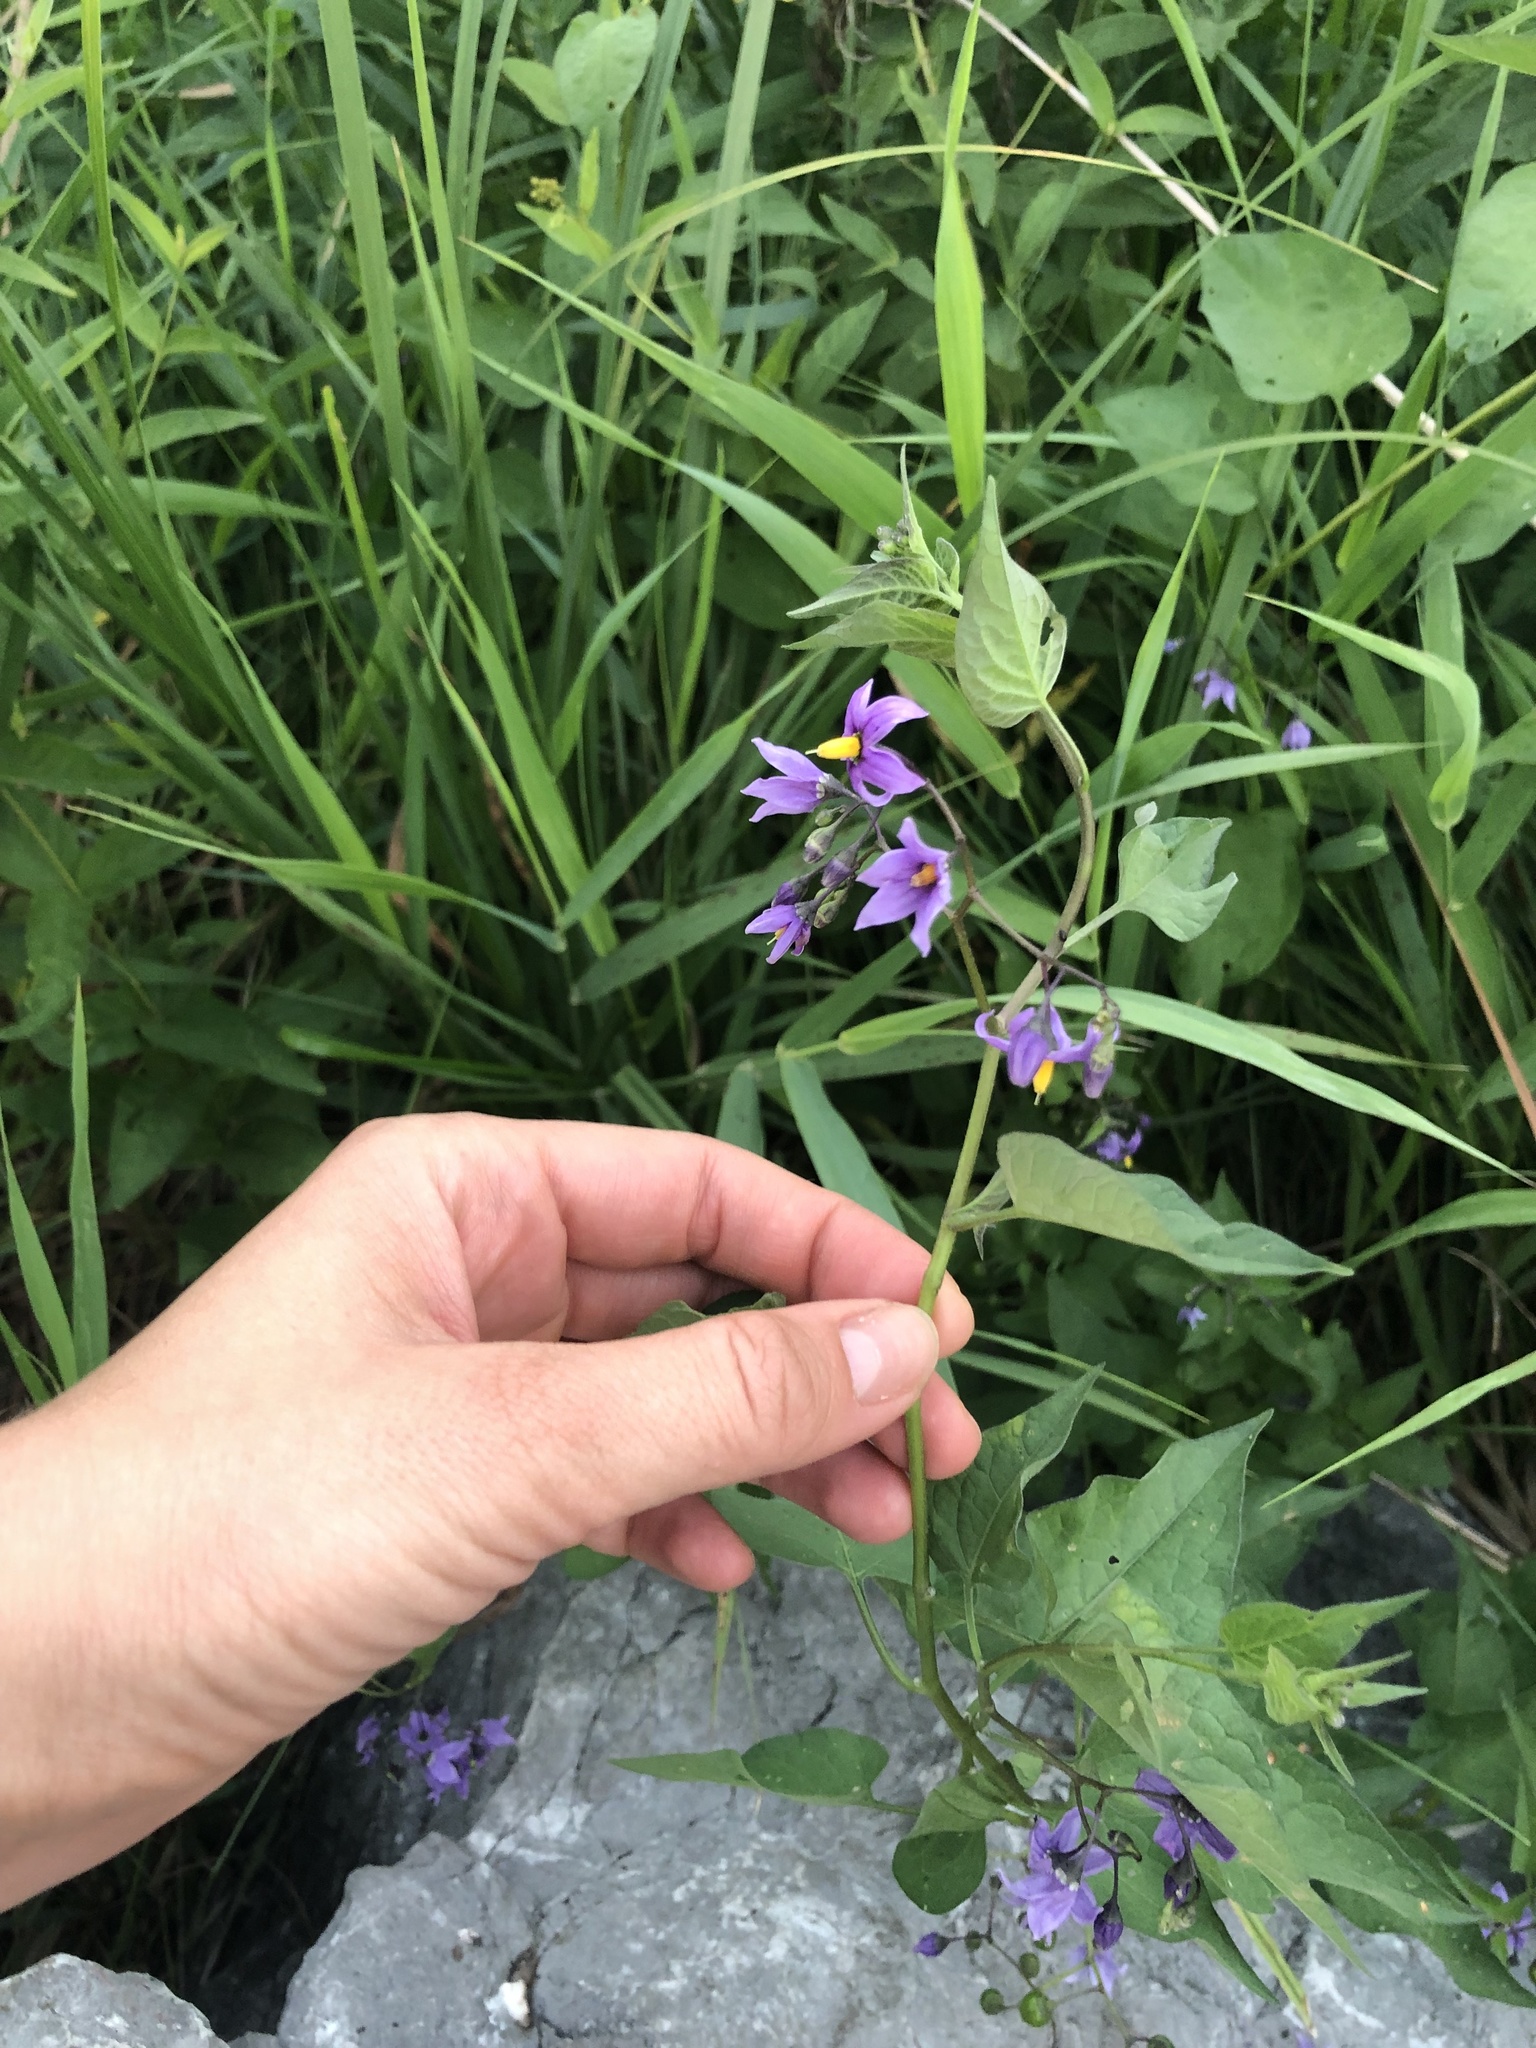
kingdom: Plantae
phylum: Tracheophyta
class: Magnoliopsida
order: Solanales
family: Solanaceae
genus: Solanum
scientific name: Solanum dulcamara
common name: Climbing nightshade
